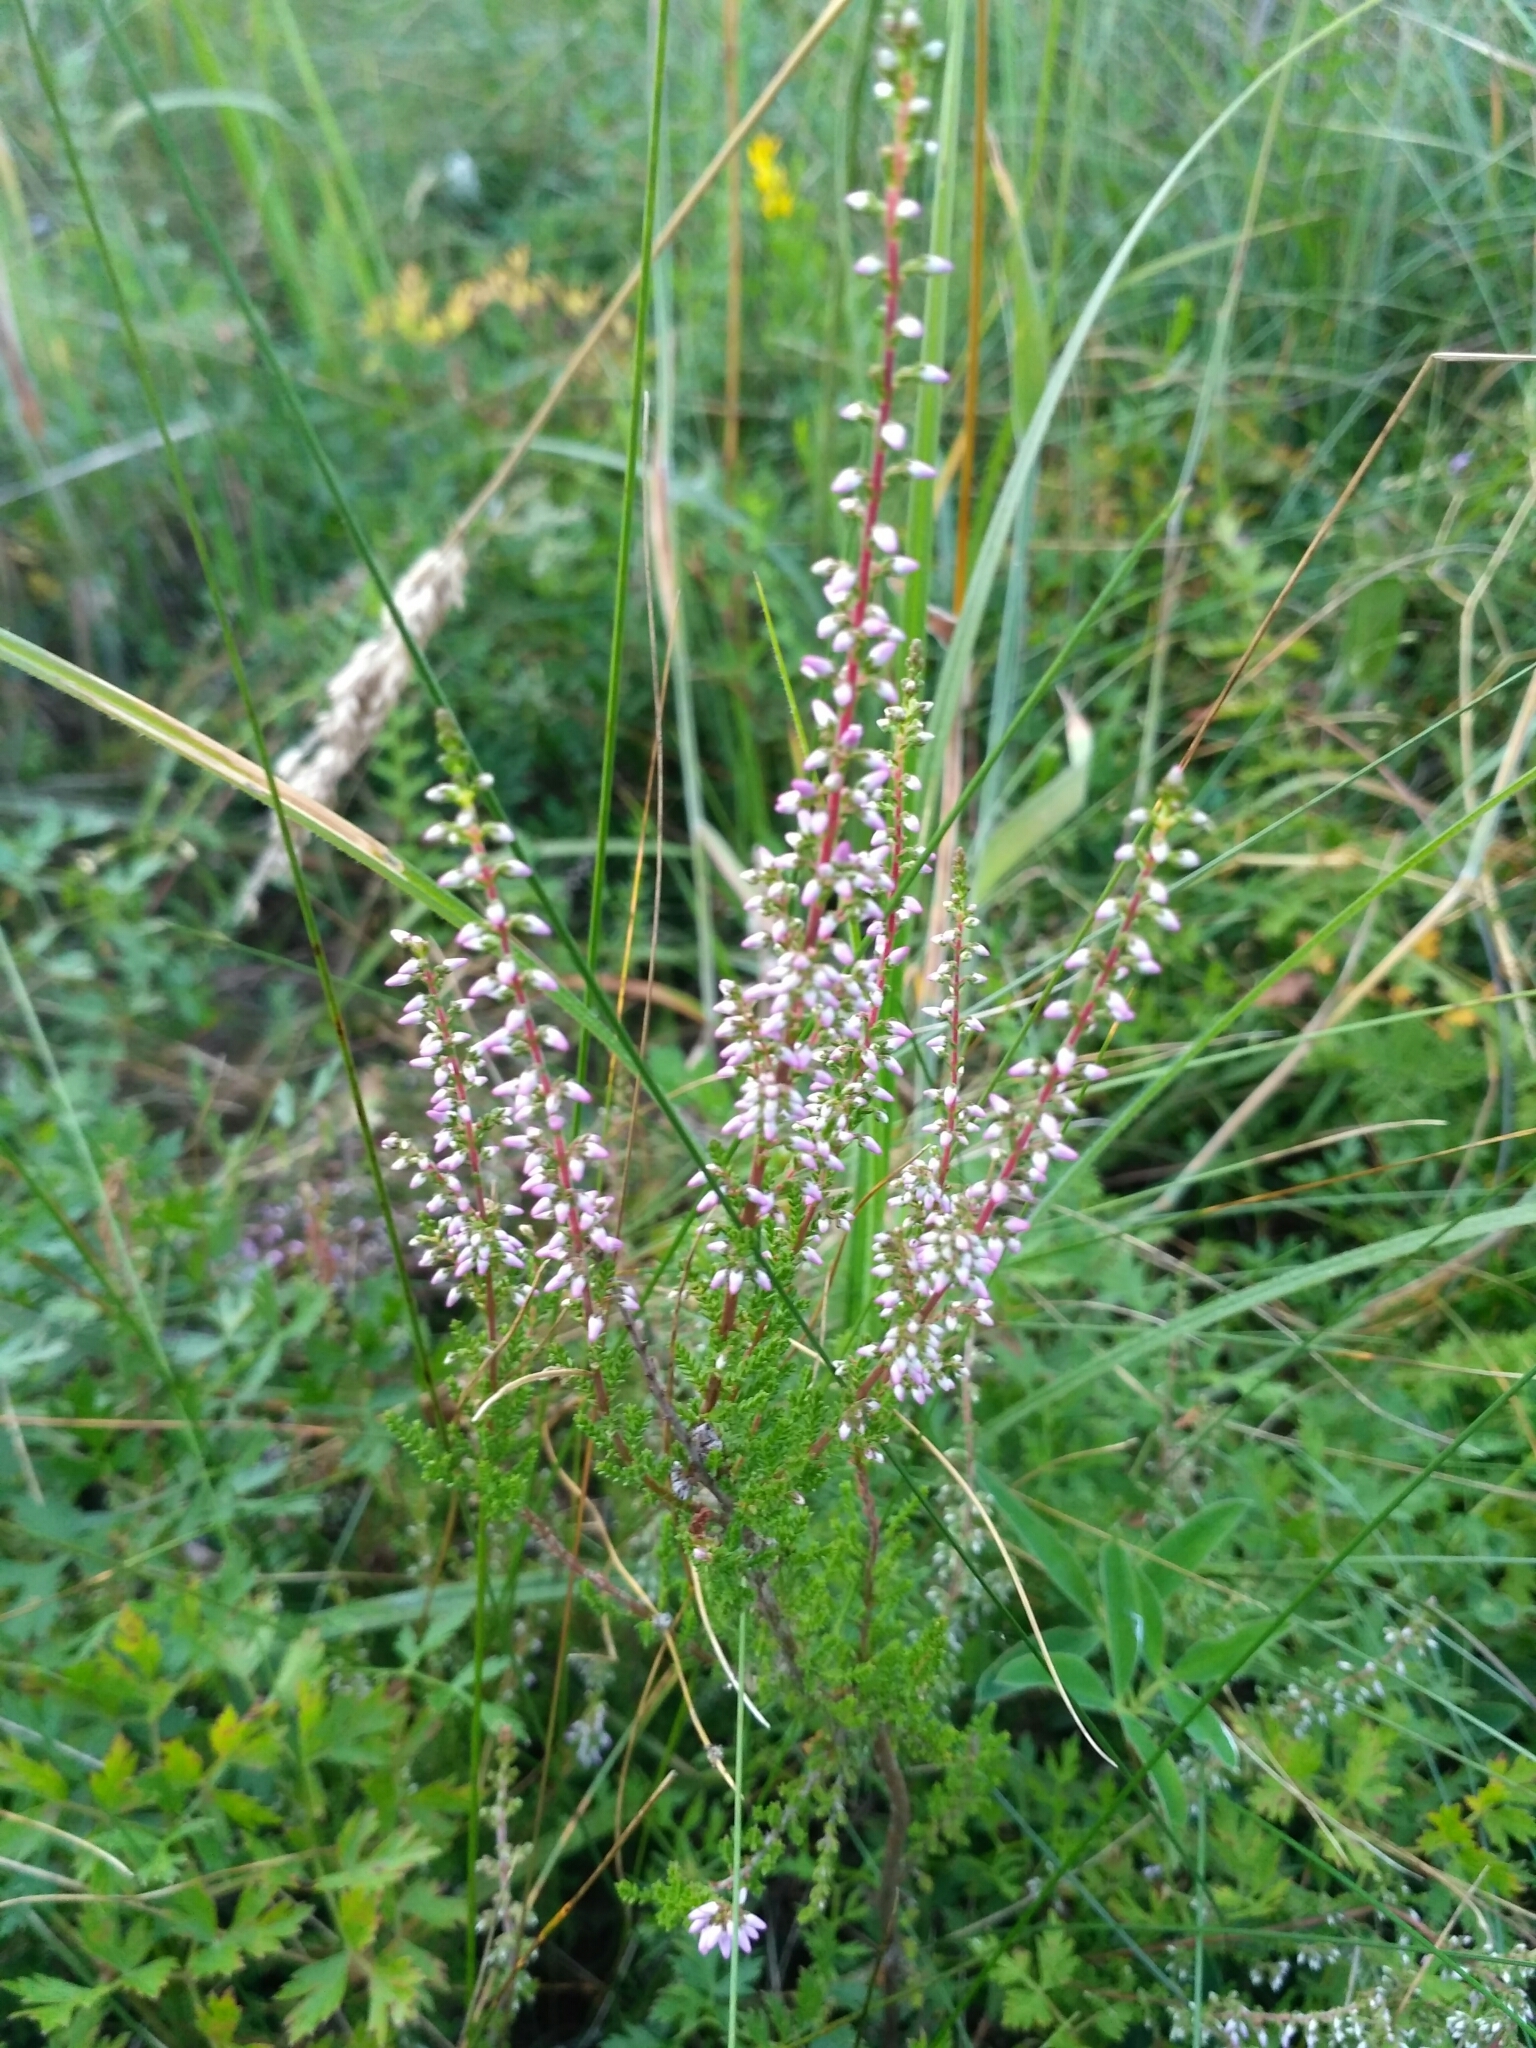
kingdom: Plantae
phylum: Tracheophyta
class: Magnoliopsida
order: Ericales
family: Ericaceae
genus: Calluna
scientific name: Calluna vulgaris
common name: Heather
